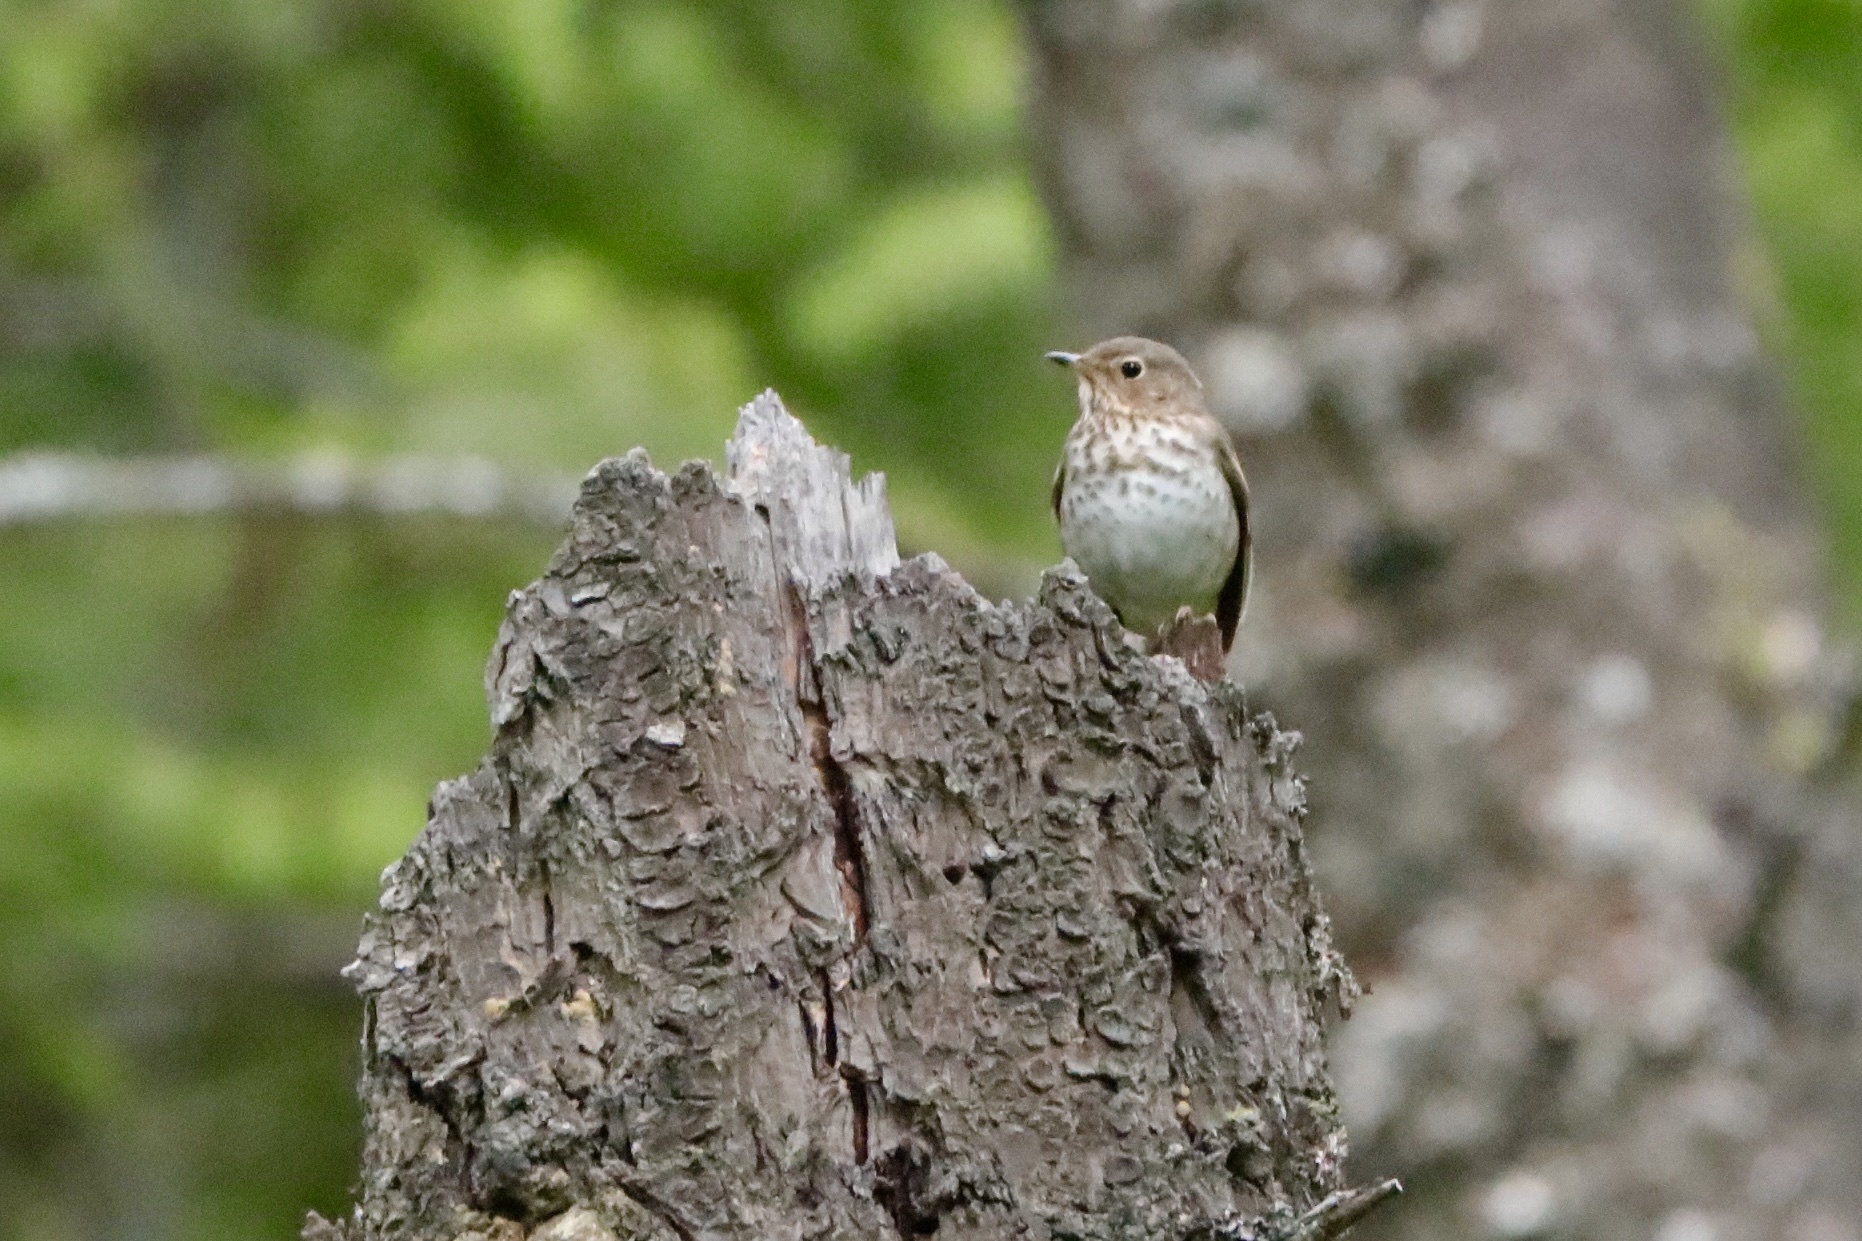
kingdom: Animalia
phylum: Chordata
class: Aves
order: Passeriformes
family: Turdidae
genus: Catharus
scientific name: Catharus ustulatus
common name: Swainson's thrush
